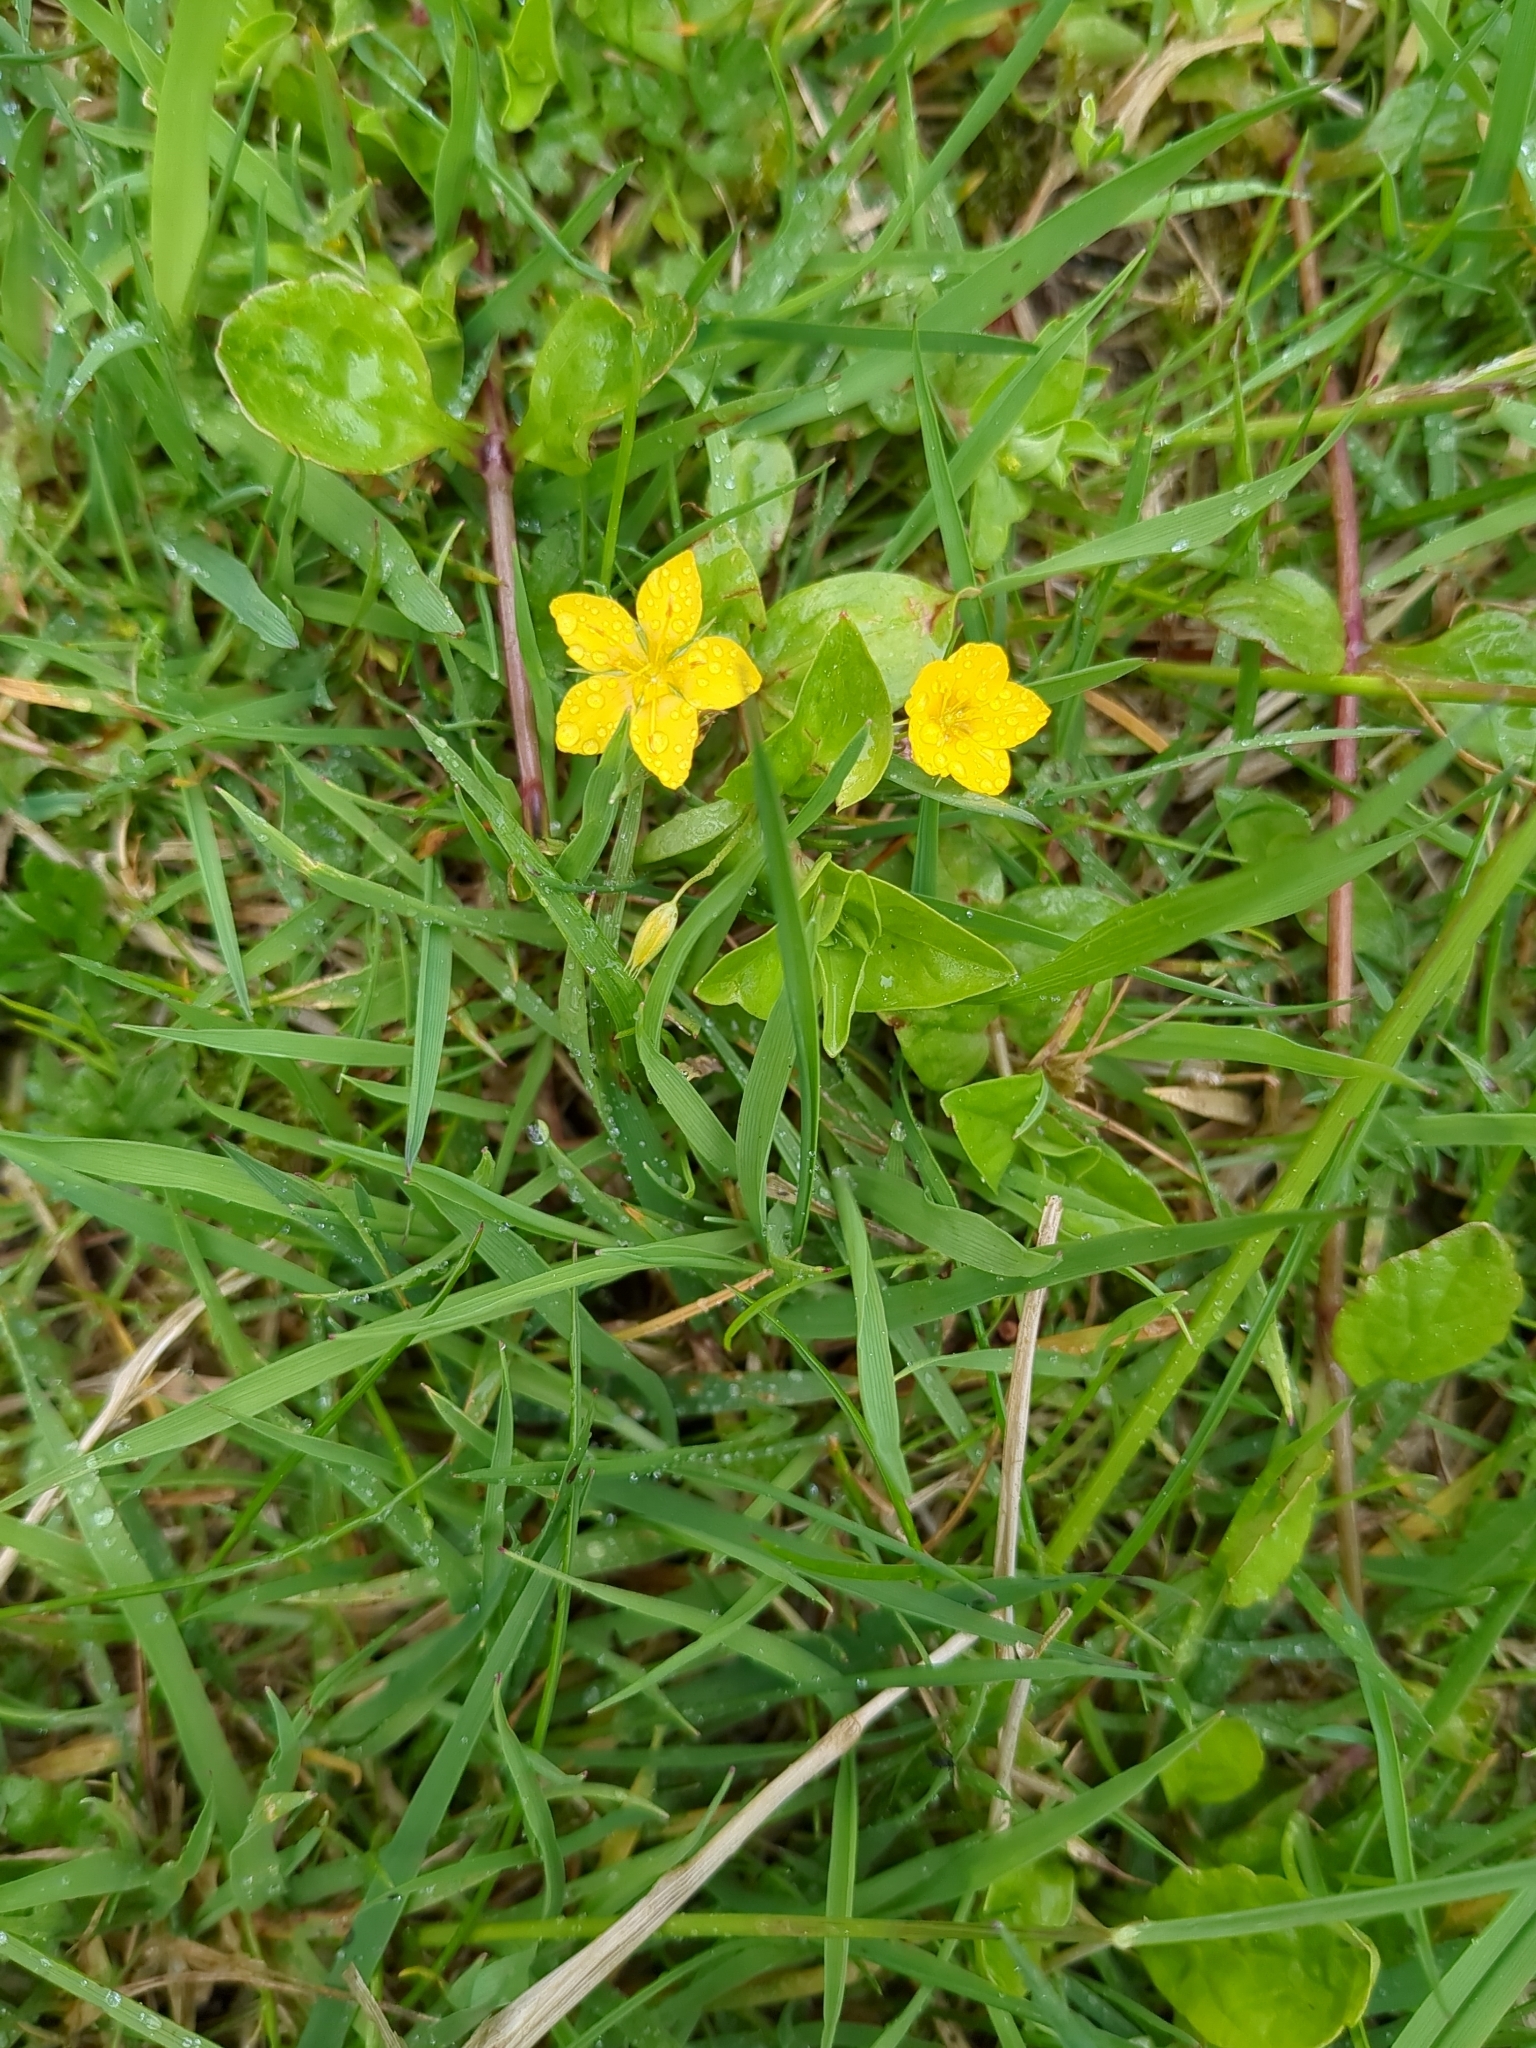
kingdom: Plantae
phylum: Tracheophyta
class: Magnoliopsida
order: Ericales
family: Primulaceae
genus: Lysimachia
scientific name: Lysimachia nemorum
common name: Yellow pimpernel
